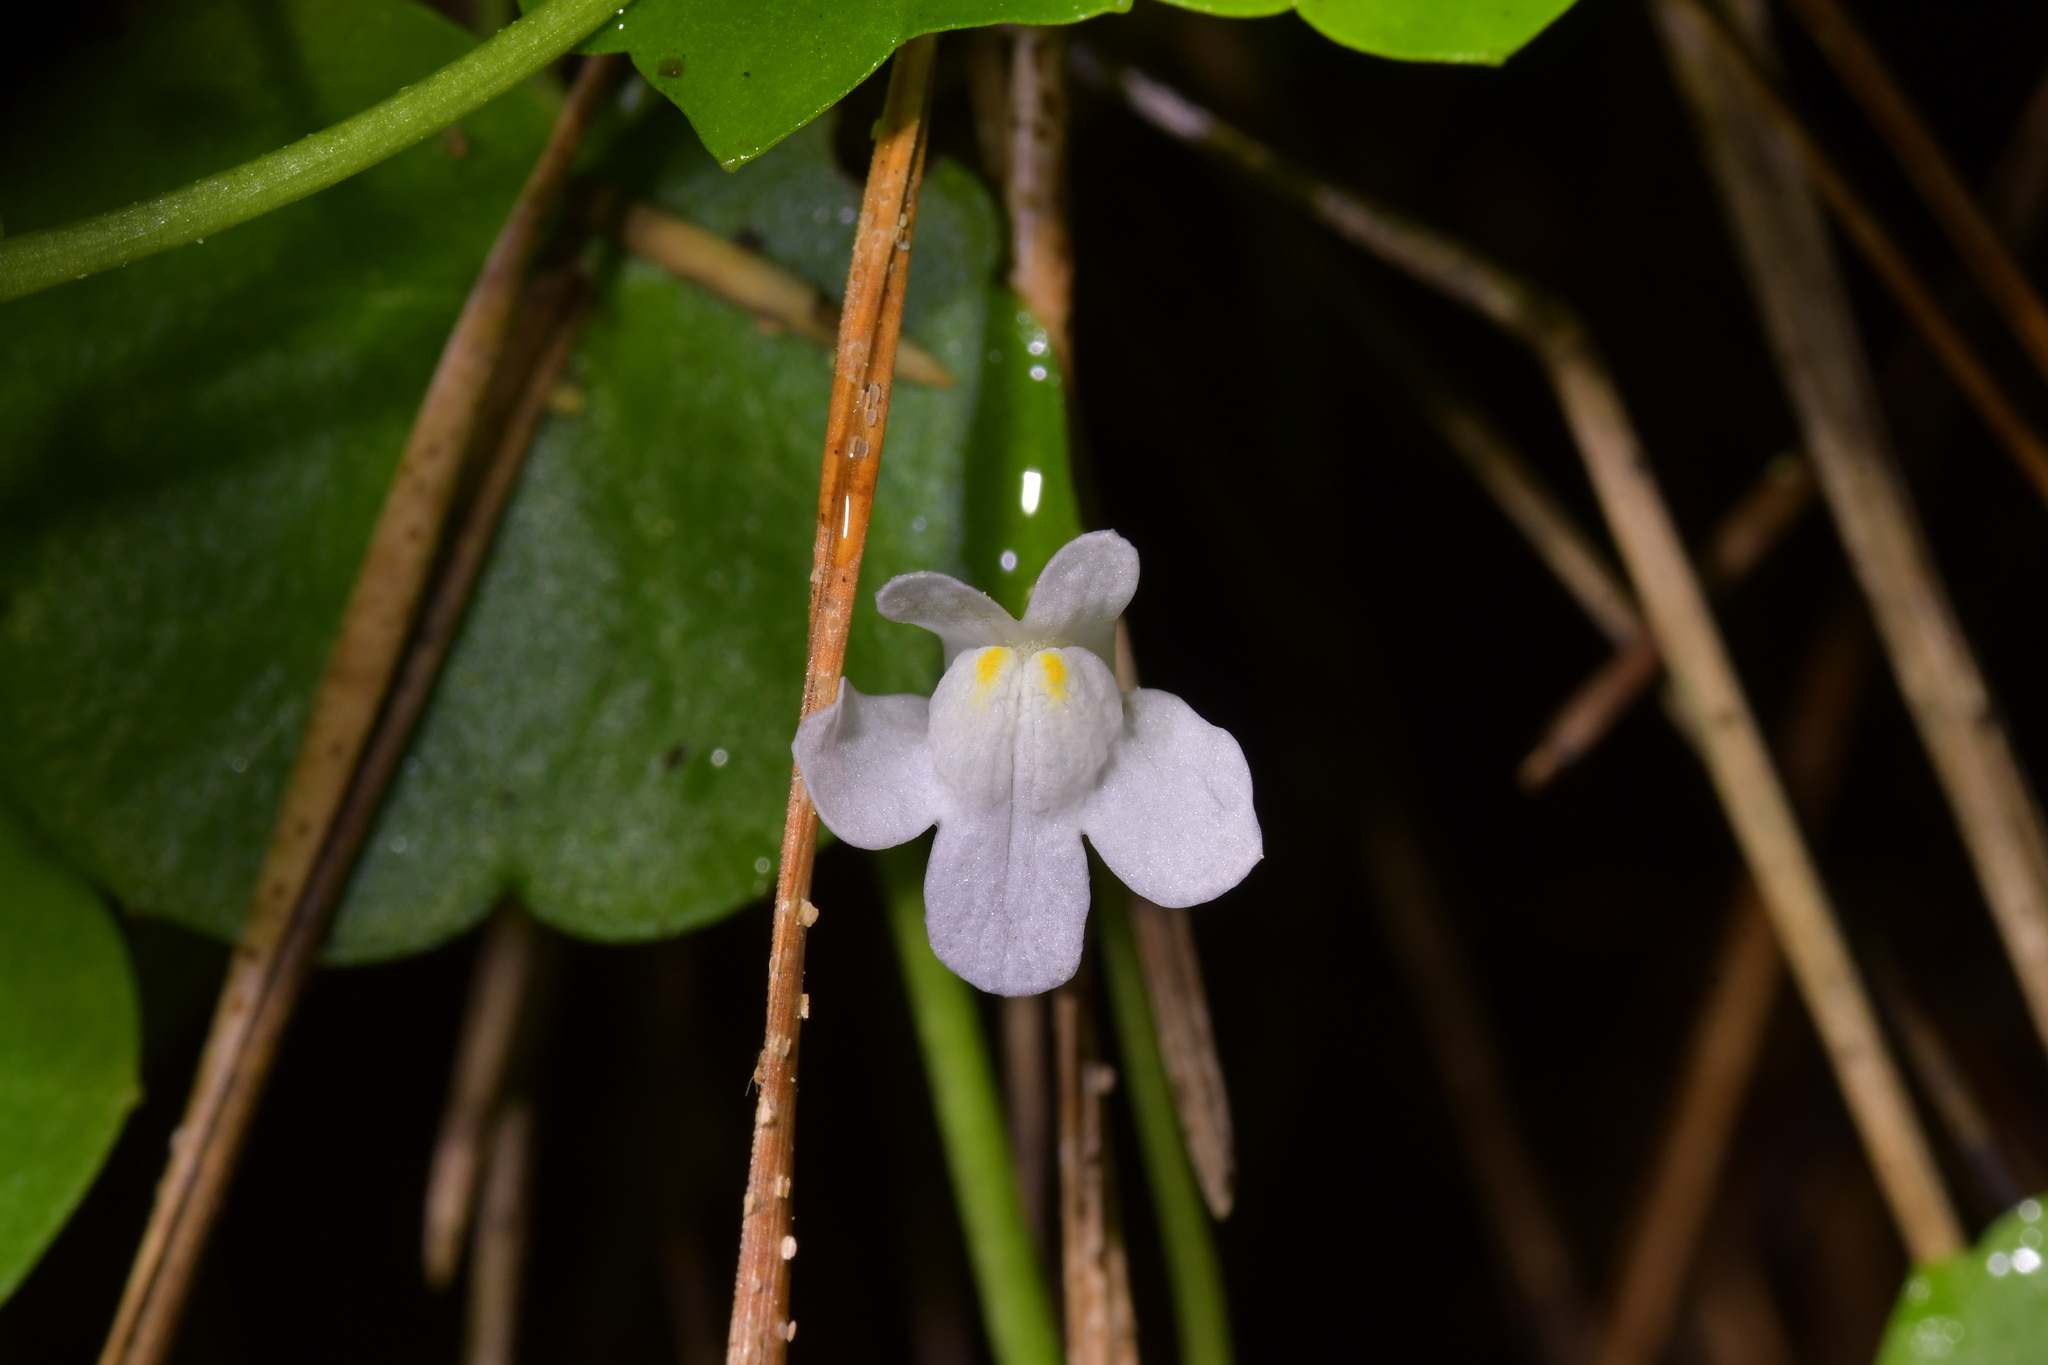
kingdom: Plantae
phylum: Tracheophyta
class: Magnoliopsida
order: Lamiales
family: Plantaginaceae
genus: Cymbalaria
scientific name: Cymbalaria muralis
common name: Ivy-leaved toadflax
